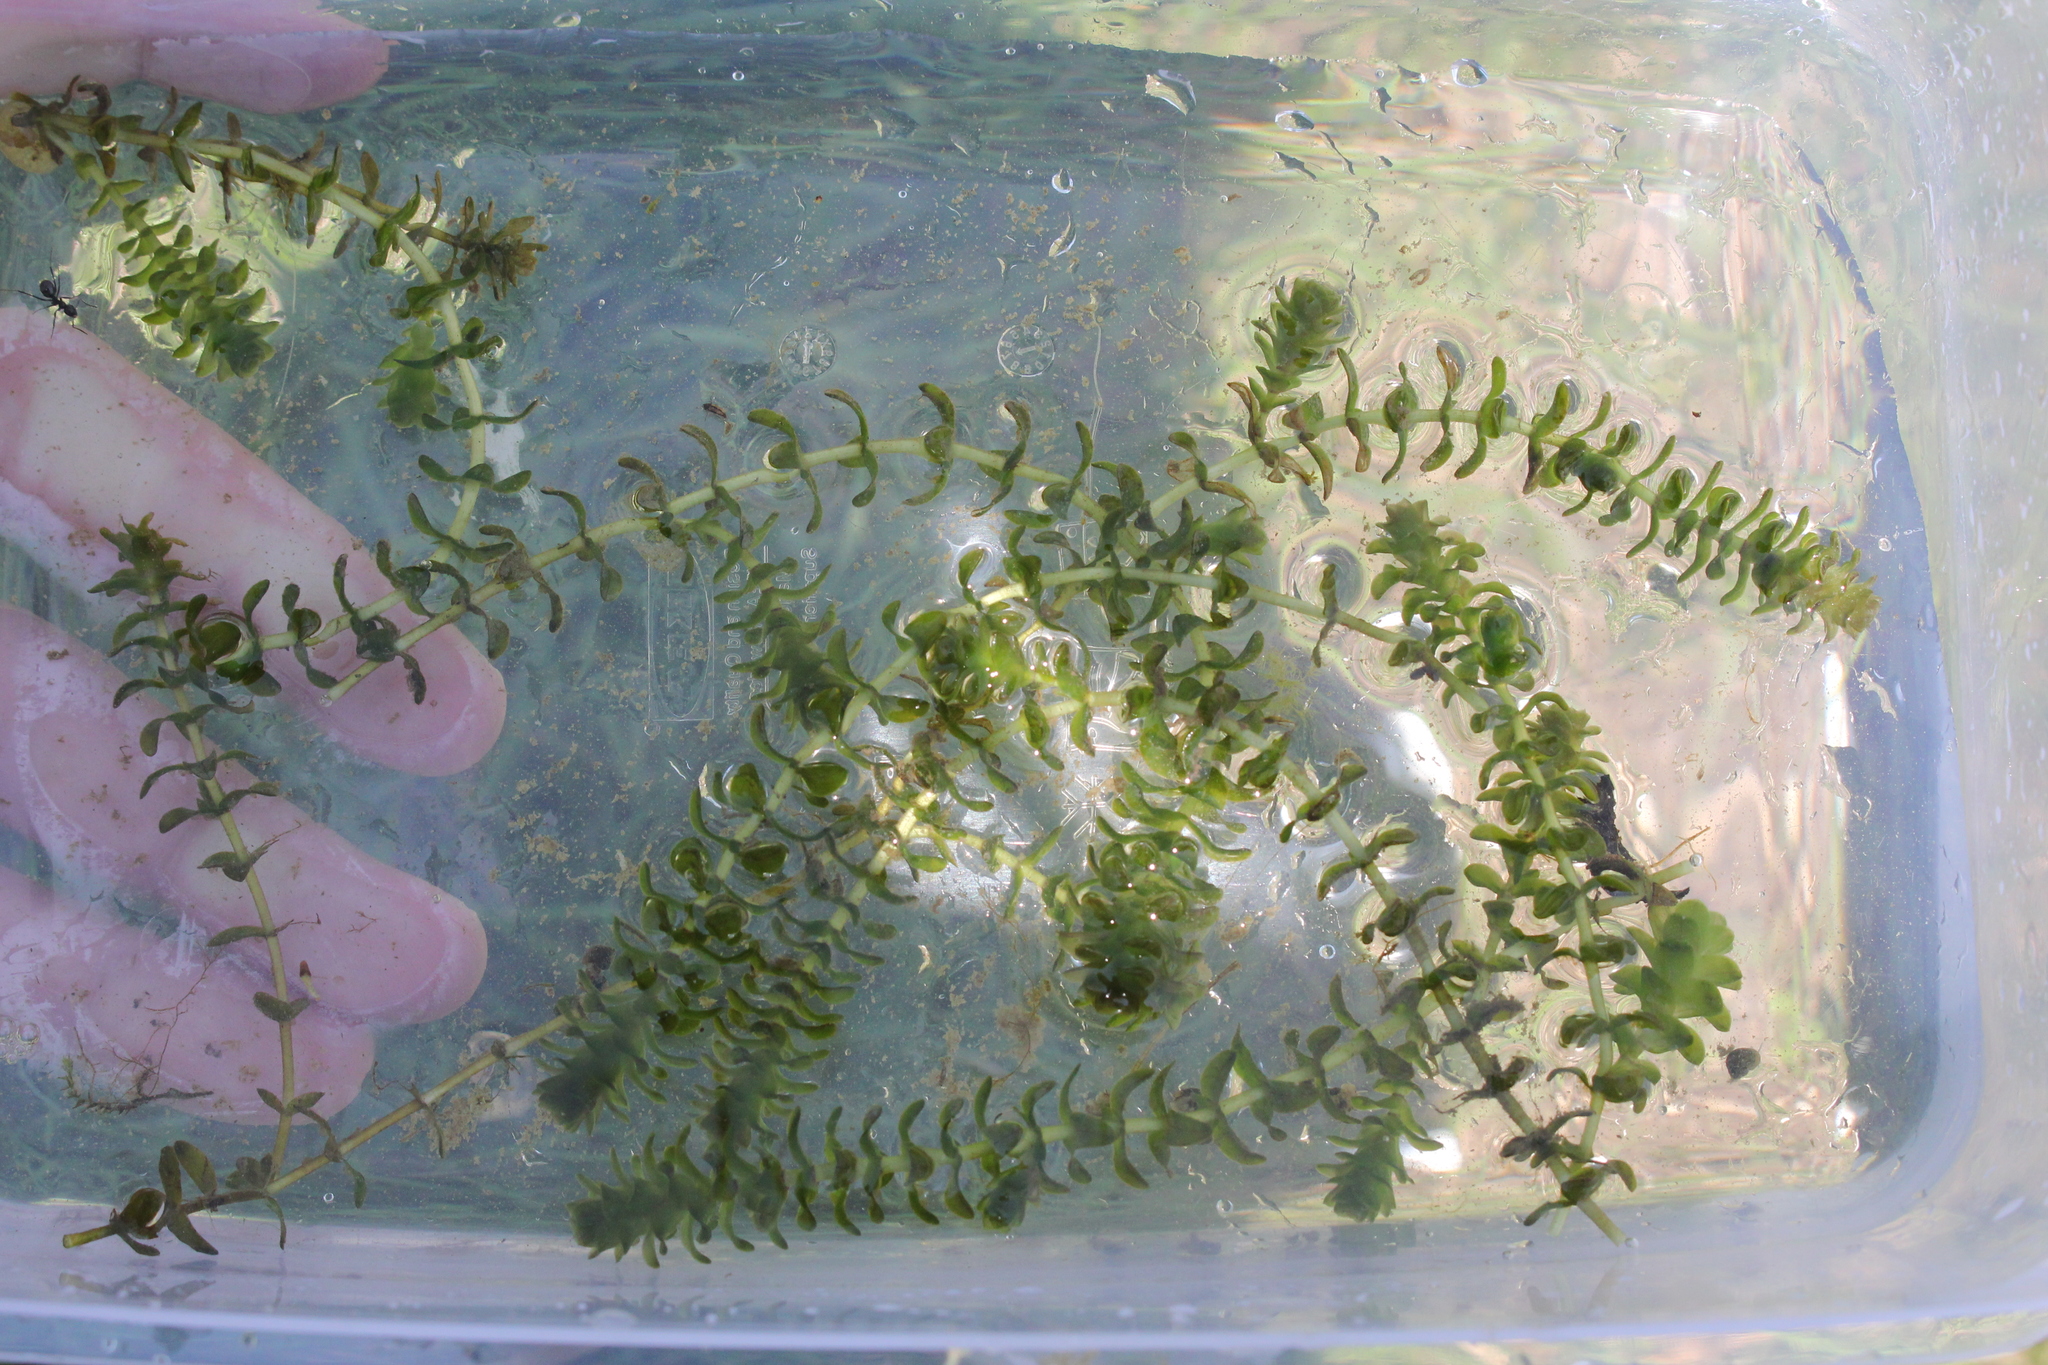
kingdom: Plantae
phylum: Tracheophyta
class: Liliopsida
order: Alismatales
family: Hydrocharitaceae
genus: Elodea
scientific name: Elodea canadensis
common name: Canadian waterweed
